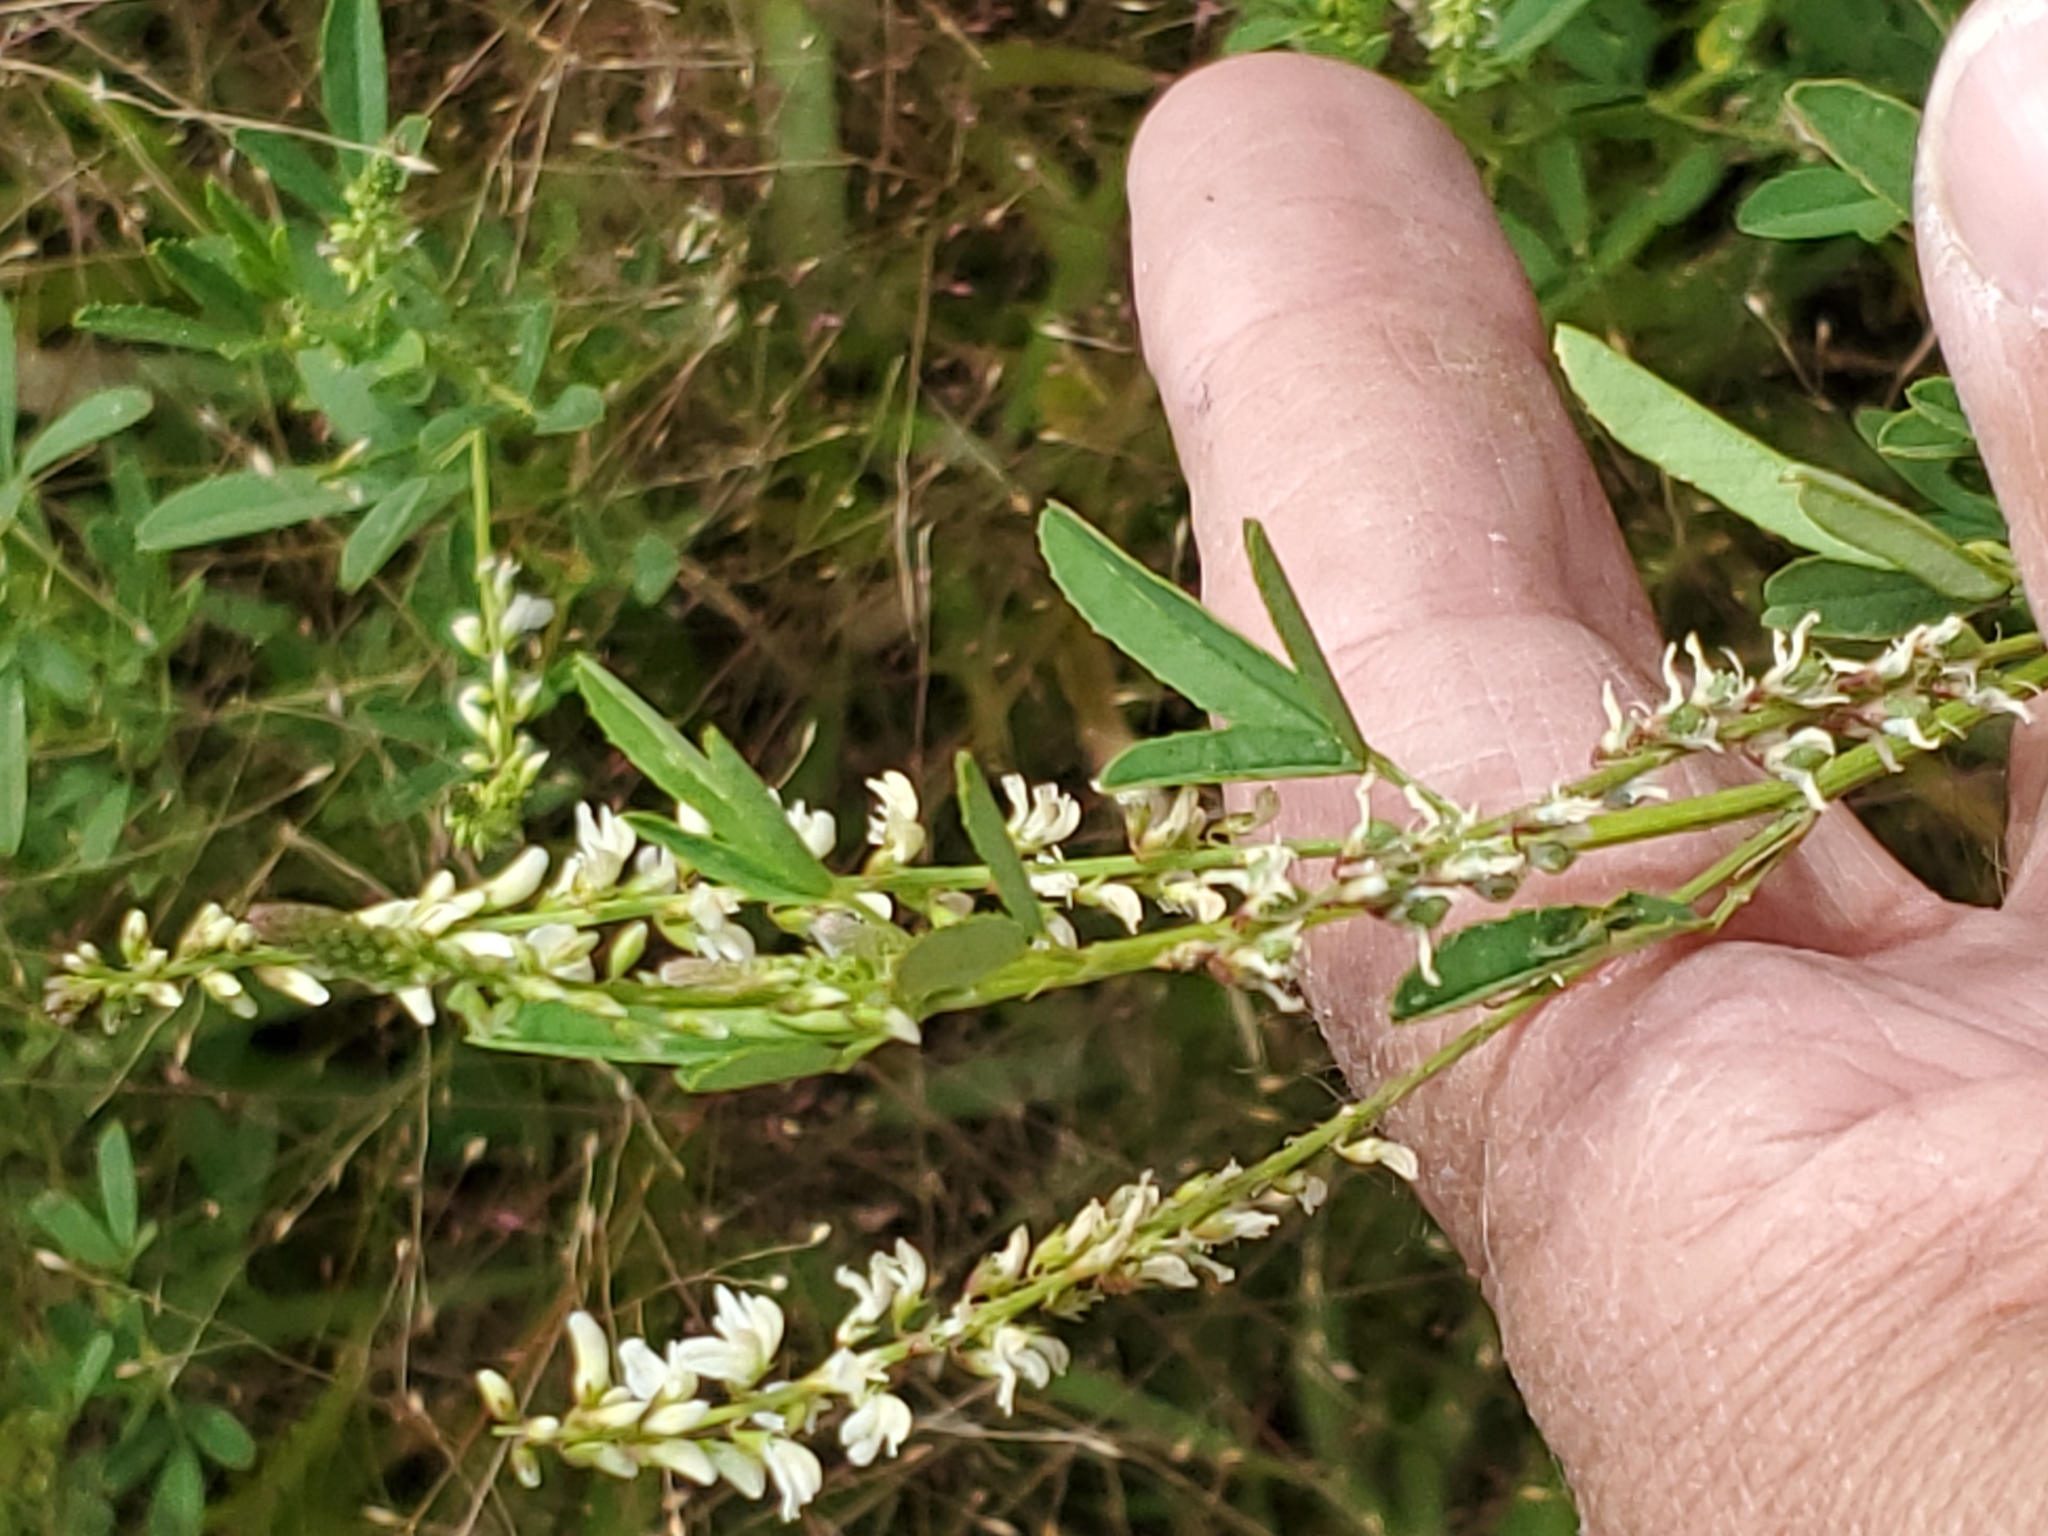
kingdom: Plantae
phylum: Tracheophyta
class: Magnoliopsida
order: Fabales
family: Fabaceae
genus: Melilotus
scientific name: Melilotus albus
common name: White melilot
